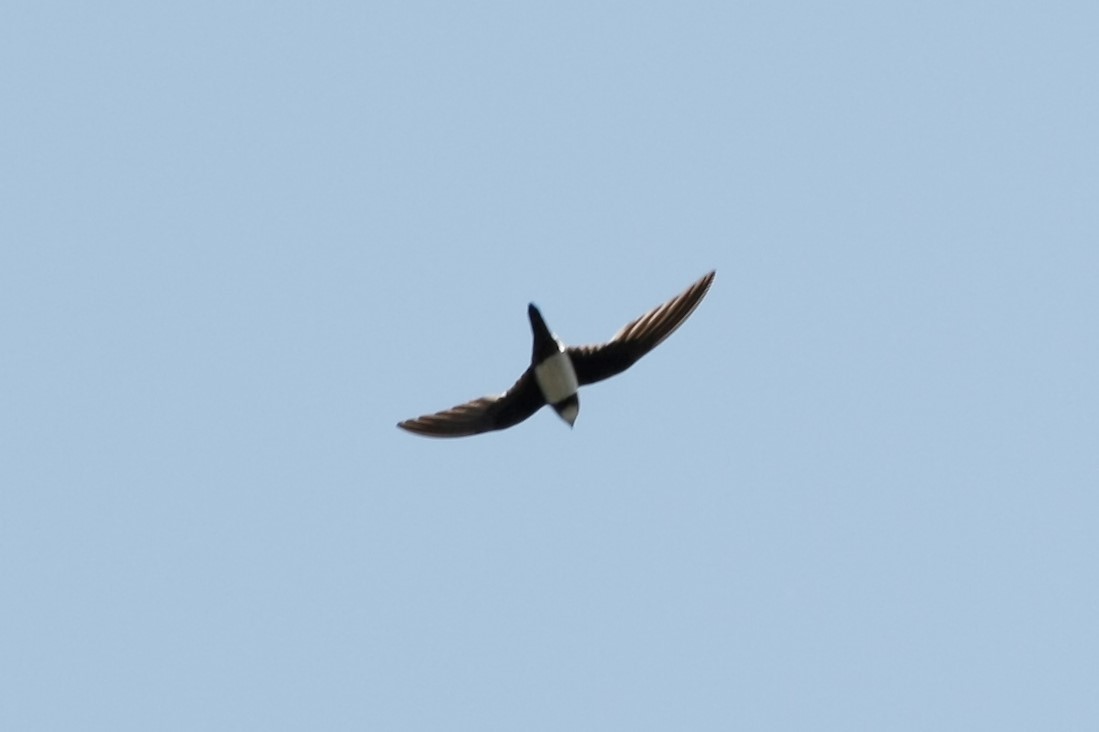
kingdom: Animalia
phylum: Chordata
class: Aves
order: Apodiformes
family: Apodidae
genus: Tachymarptis
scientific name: Tachymarptis melba
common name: Alpine swift
